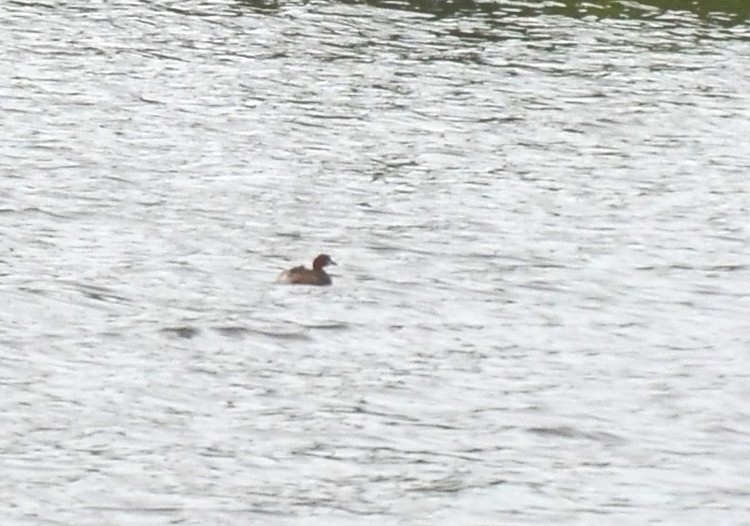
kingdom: Animalia
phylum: Chordata
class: Aves
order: Podicipediformes
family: Podicipedidae
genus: Tachybaptus
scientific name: Tachybaptus ruficollis
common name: Little grebe
